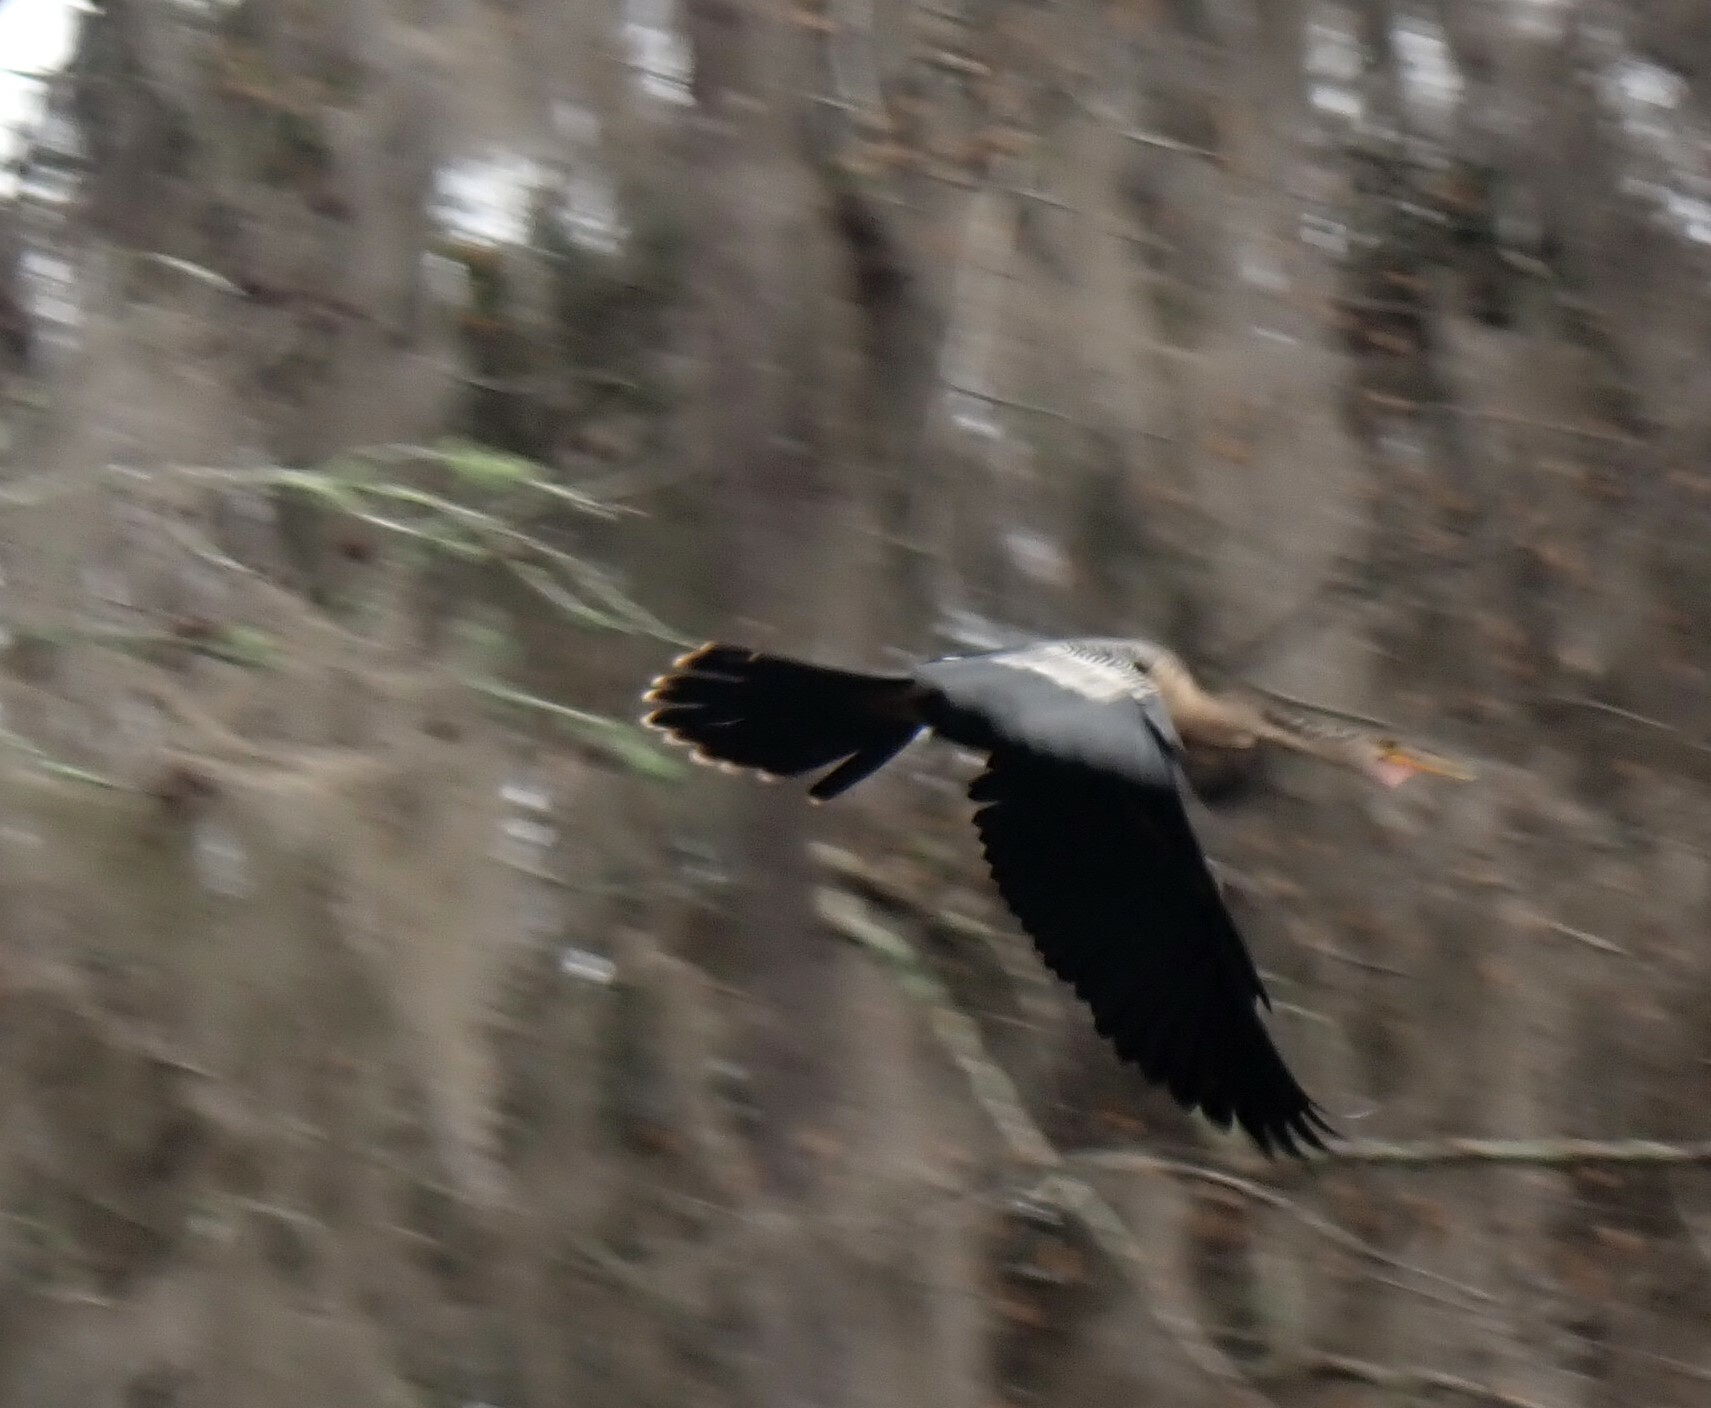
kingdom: Animalia
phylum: Chordata
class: Aves
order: Suliformes
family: Anhingidae
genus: Anhinga
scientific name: Anhinga anhinga
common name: Anhinga
